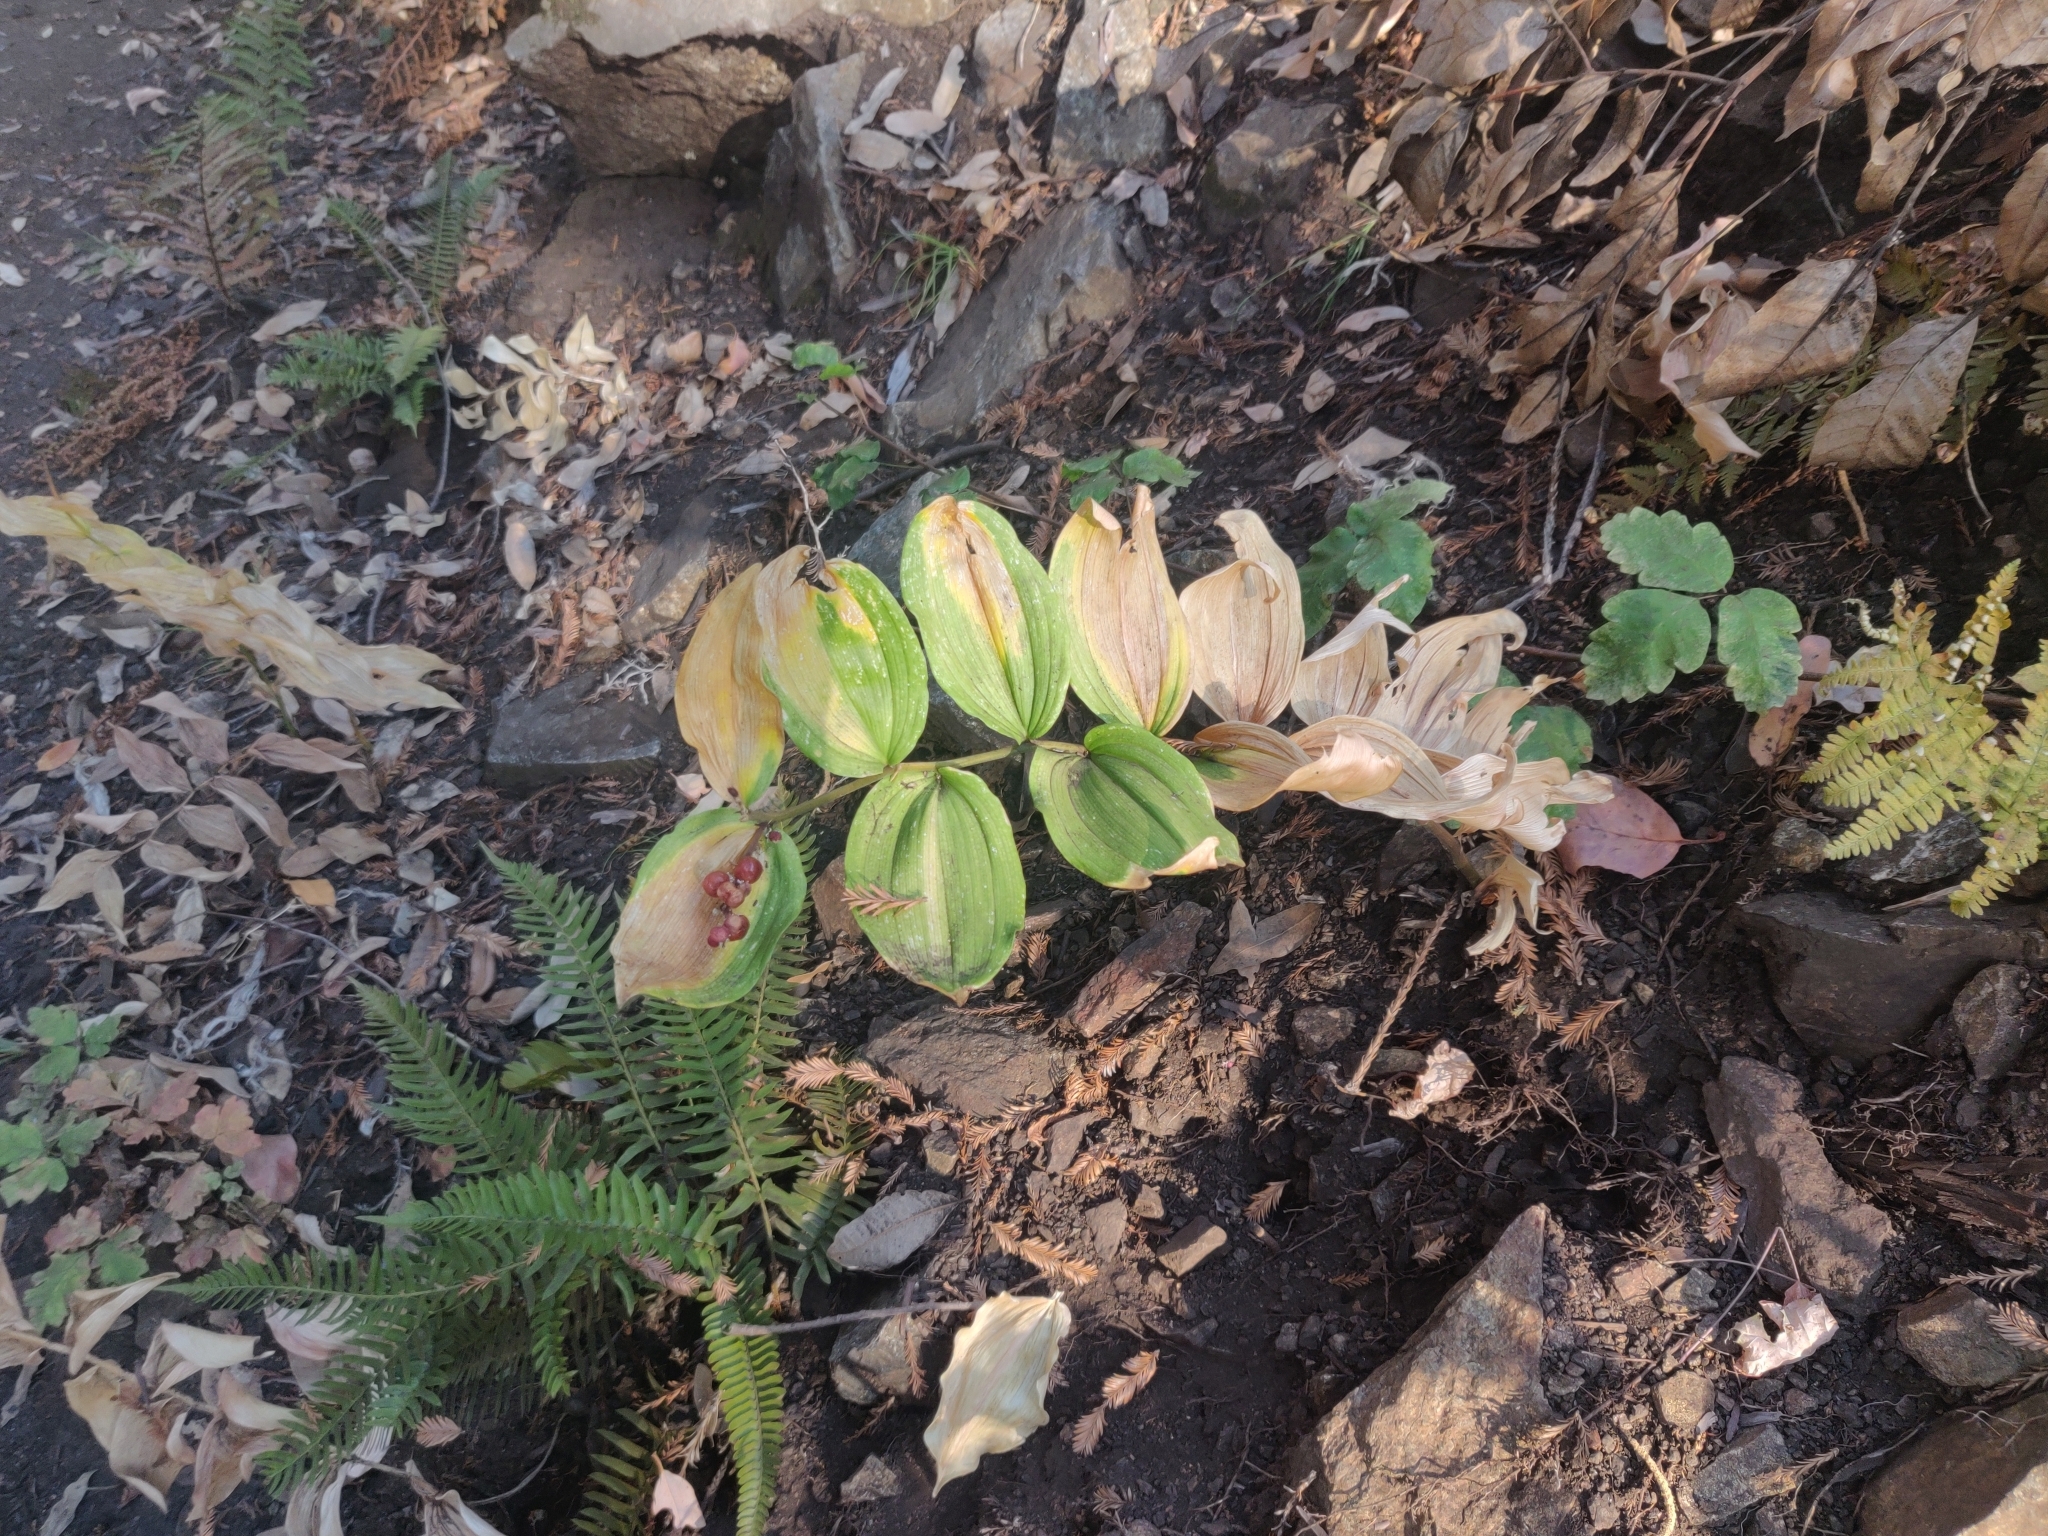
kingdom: Plantae
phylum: Tracheophyta
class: Liliopsida
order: Asparagales
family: Asparagaceae
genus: Maianthemum
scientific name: Maianthemum racemosum
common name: False spikenard
